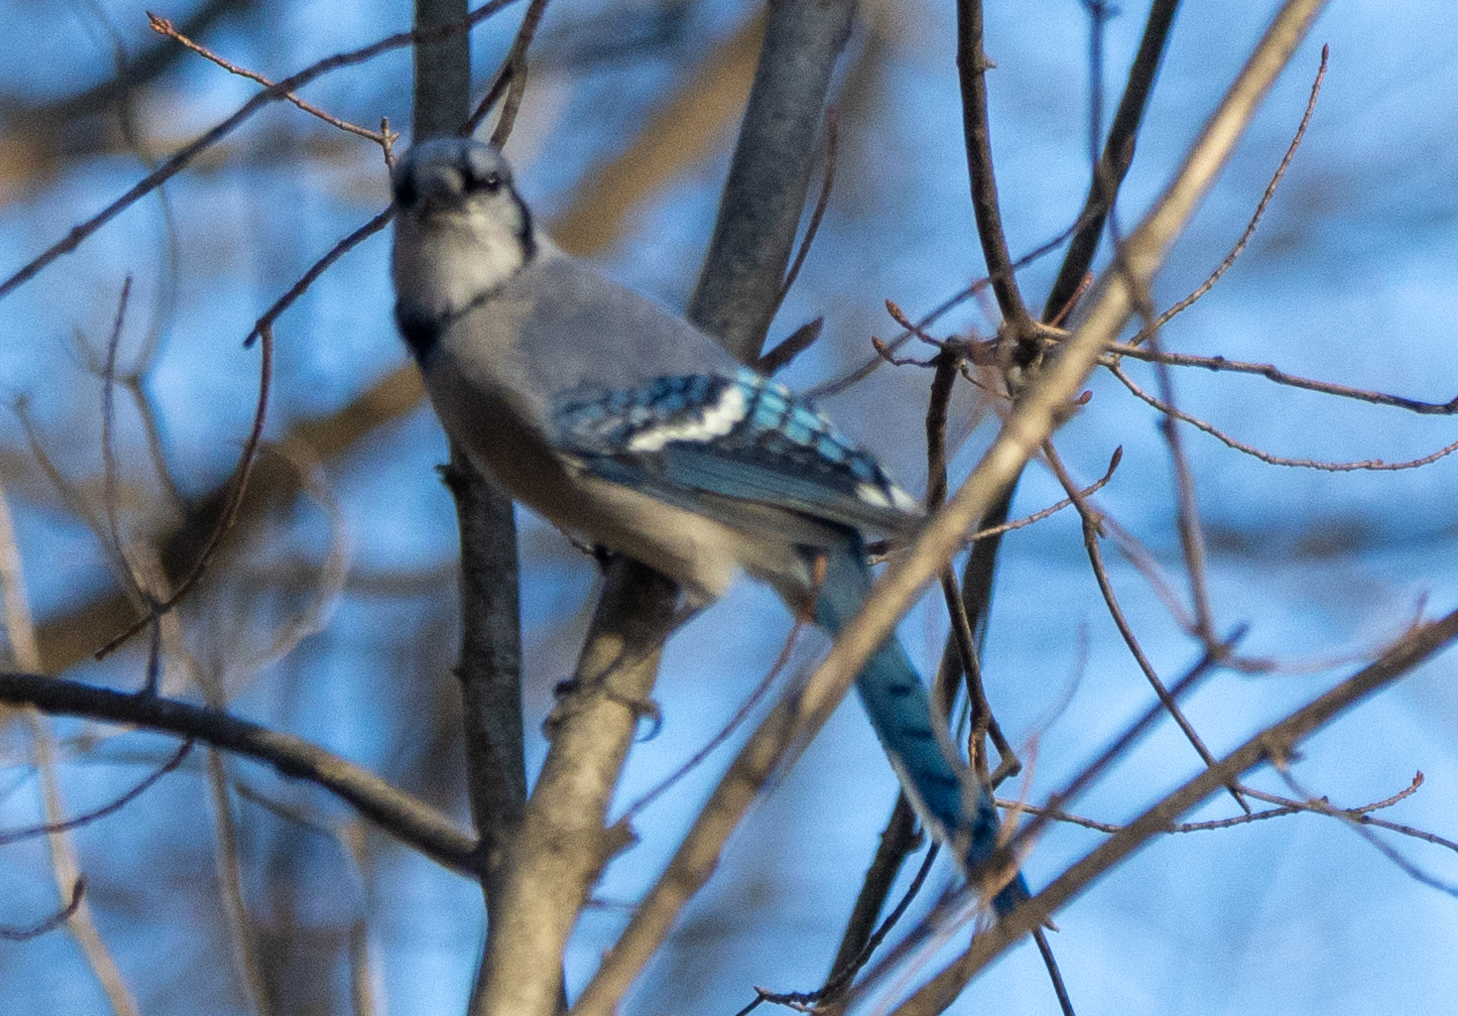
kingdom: Animalia
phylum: Chordata
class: Aves
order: Passeriformes
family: Corvidae
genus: Cyanocitta
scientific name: Cyanocitta cristata
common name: Blue jay
